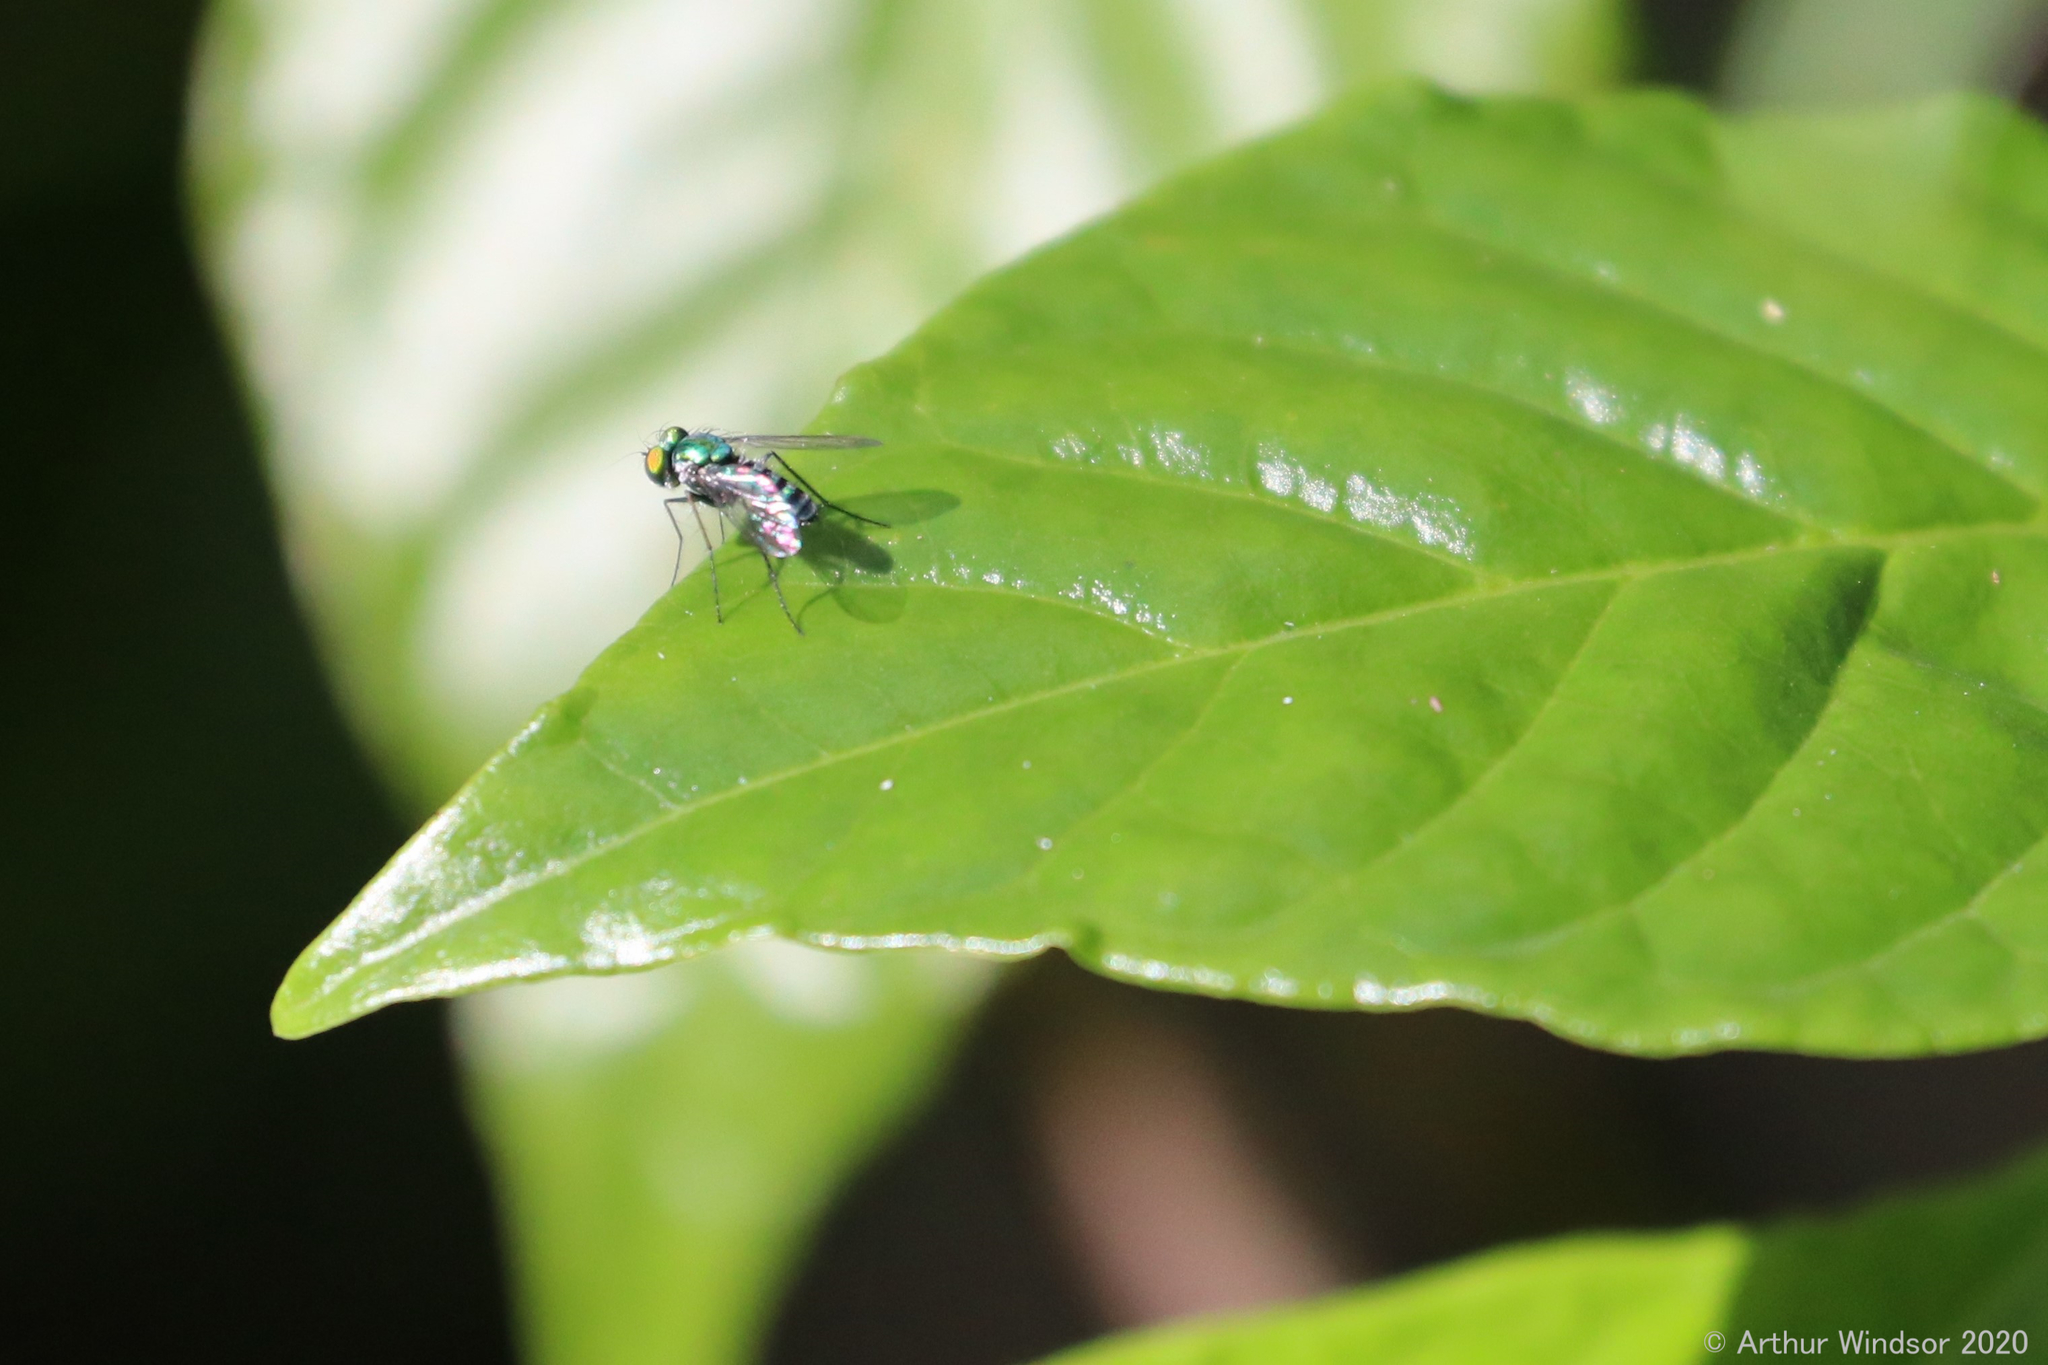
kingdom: Animalia
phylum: Arthropoda
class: Insecta
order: Diptera
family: Dolichopodidae
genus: Condylostylus
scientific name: Condylostylus pruinosus
